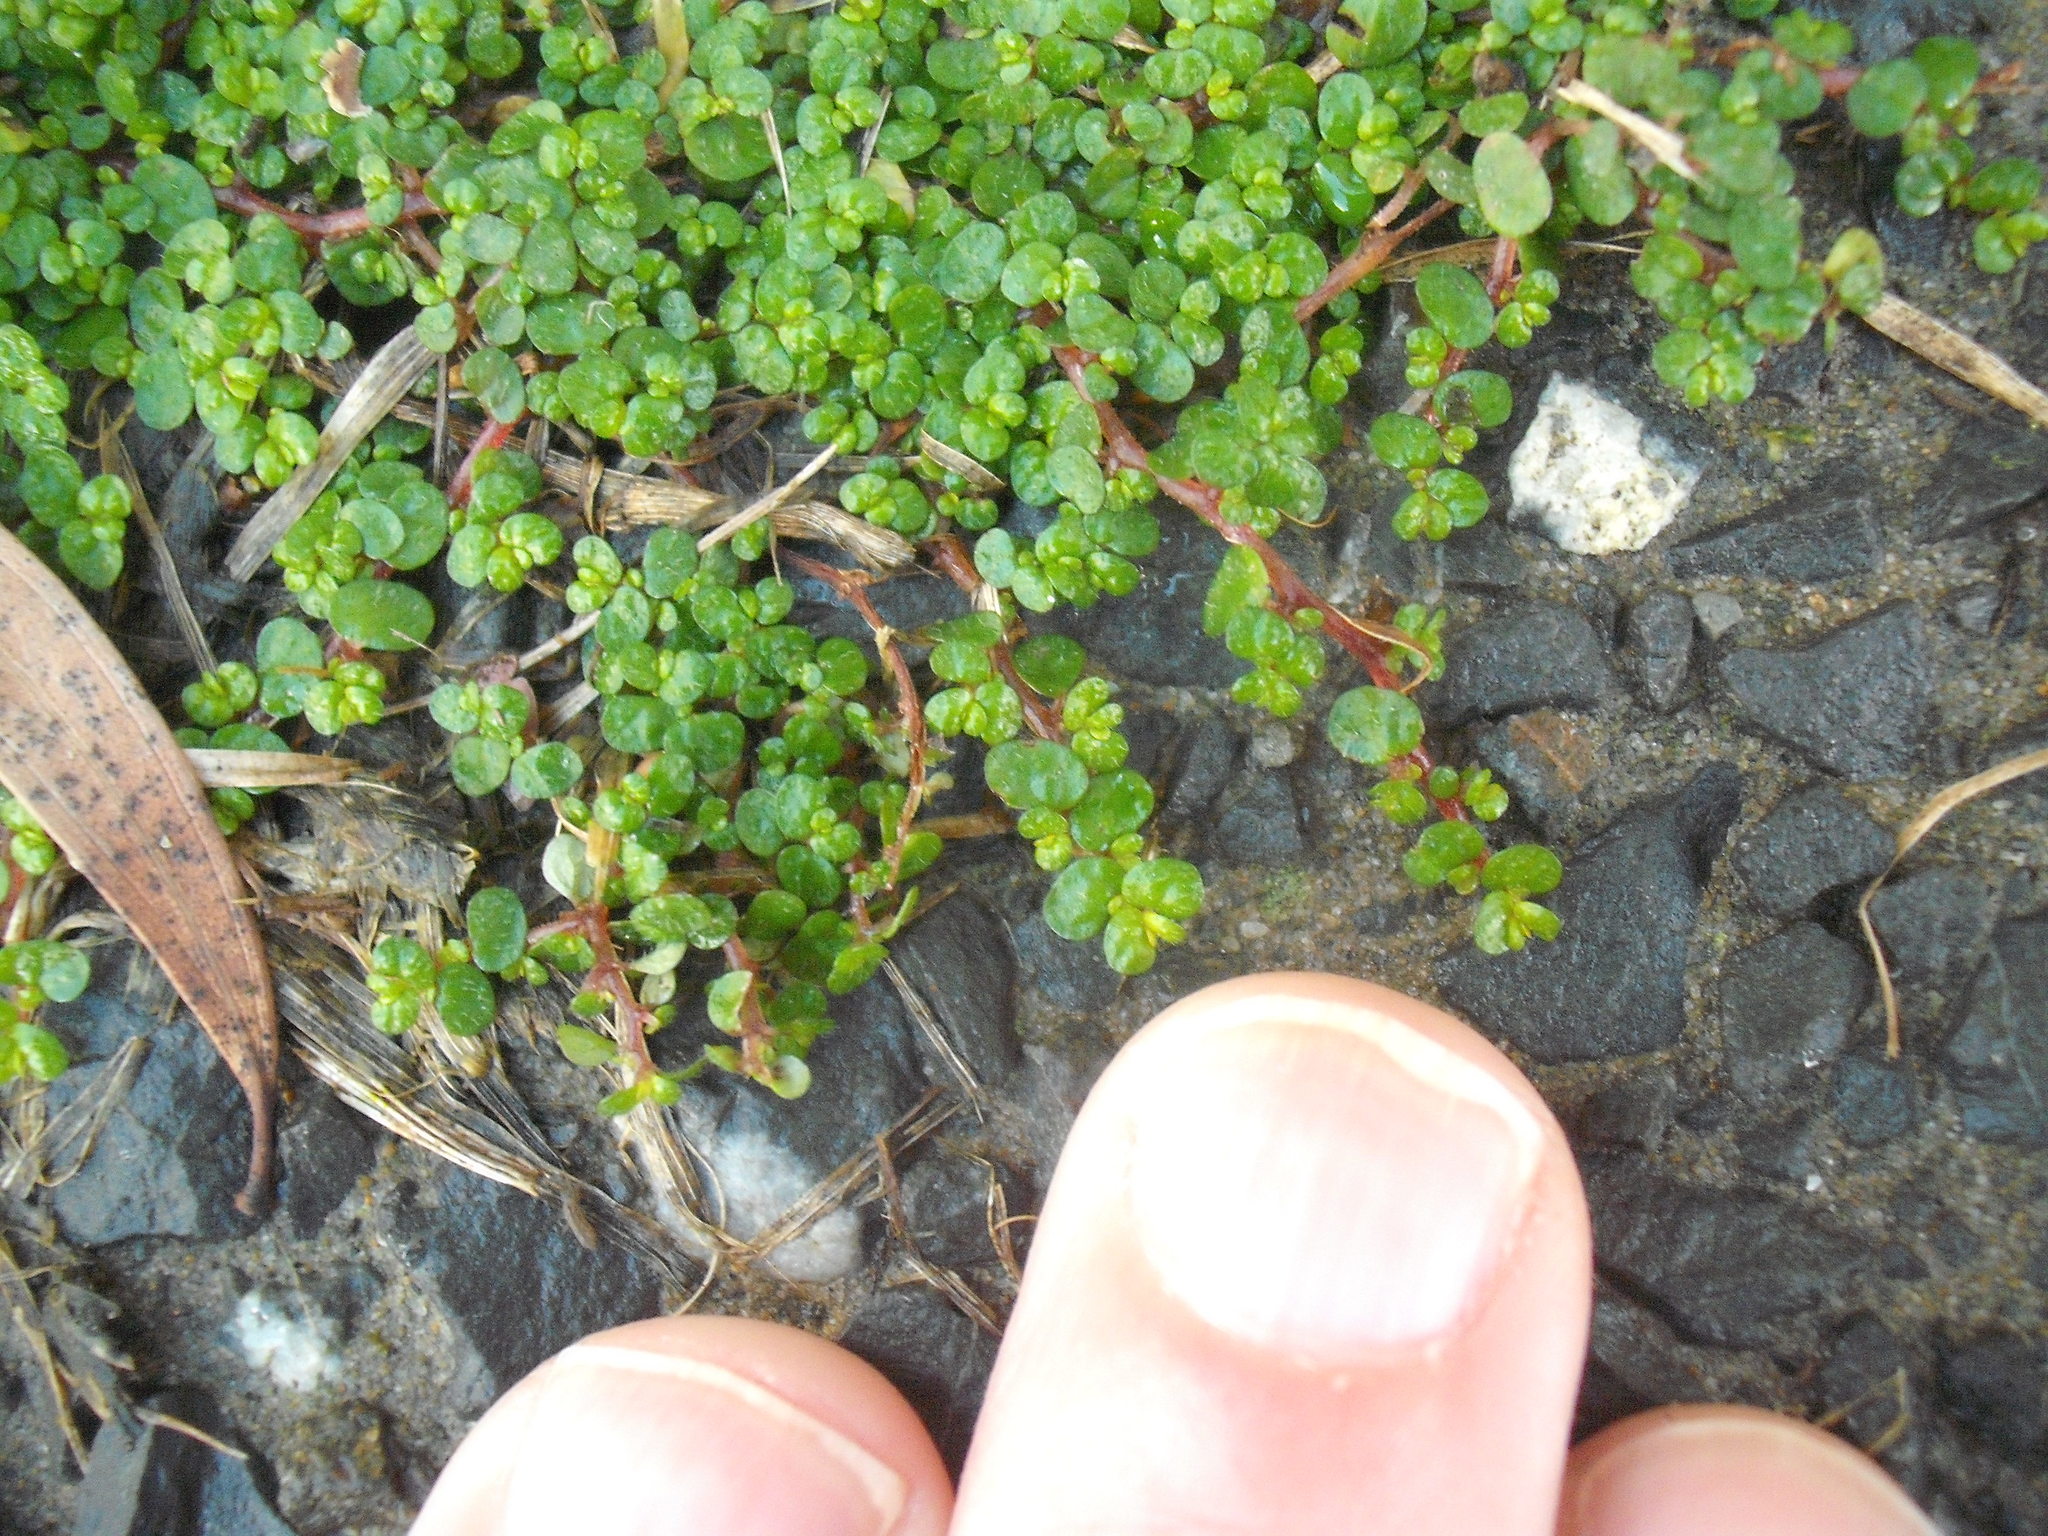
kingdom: Plantae
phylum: Tracheophyta
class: Magnoliopsida
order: Rosales
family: Urticaceae
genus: Soleirolia
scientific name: Soleirolia soleirolii
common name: Mind-your-own-business
